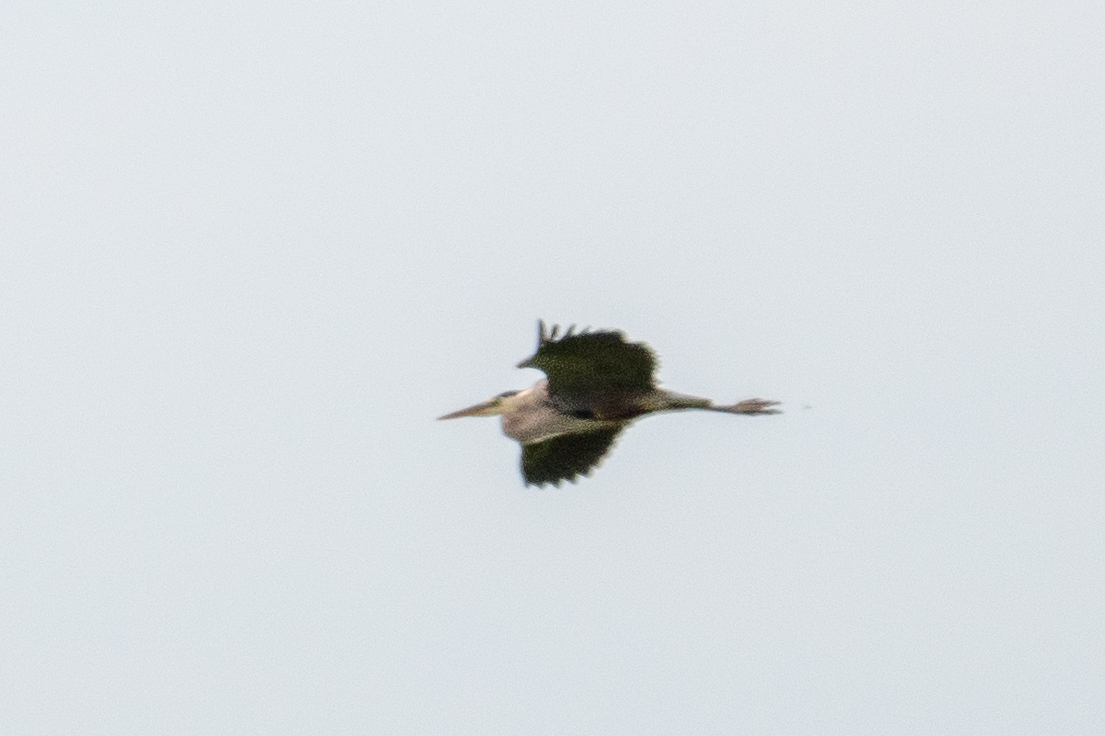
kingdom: Animalia
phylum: Chordata
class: Aves
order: Pelecaniformes
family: Ardeidae
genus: Ardea
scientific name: Ardea herodias
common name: Great blue heron
